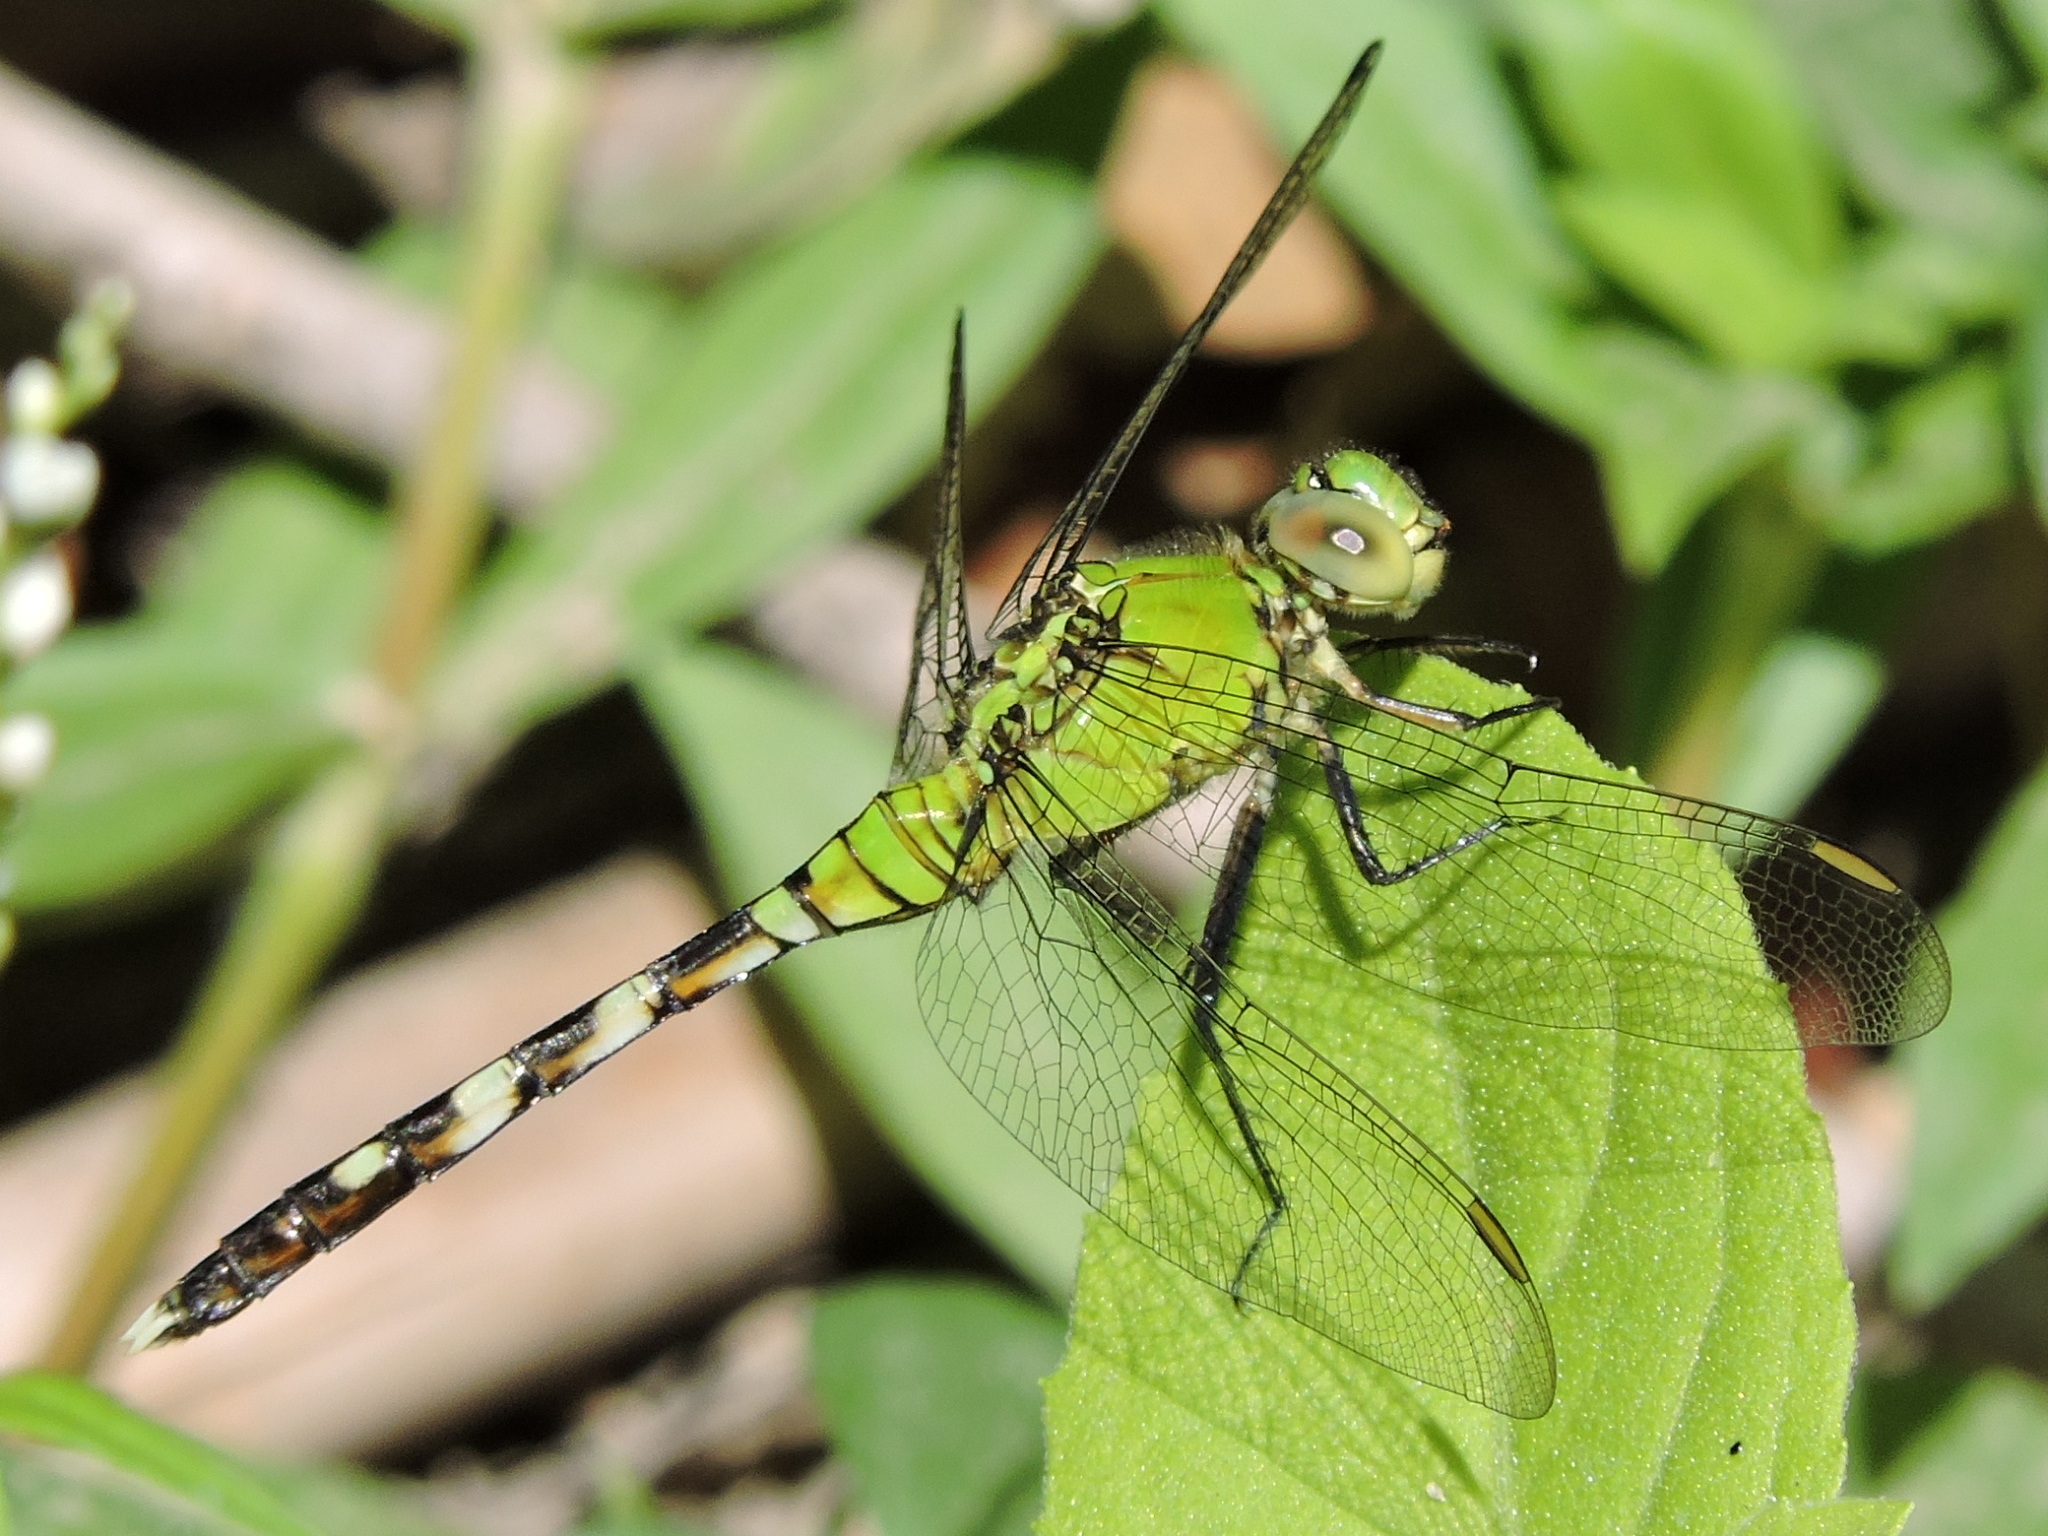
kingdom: Animalia
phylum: Arthropoda
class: Insecta
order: Odonata
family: Libellulidae
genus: Erythemis
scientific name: Erythemis simplicicollis
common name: Eastern pondhawk
